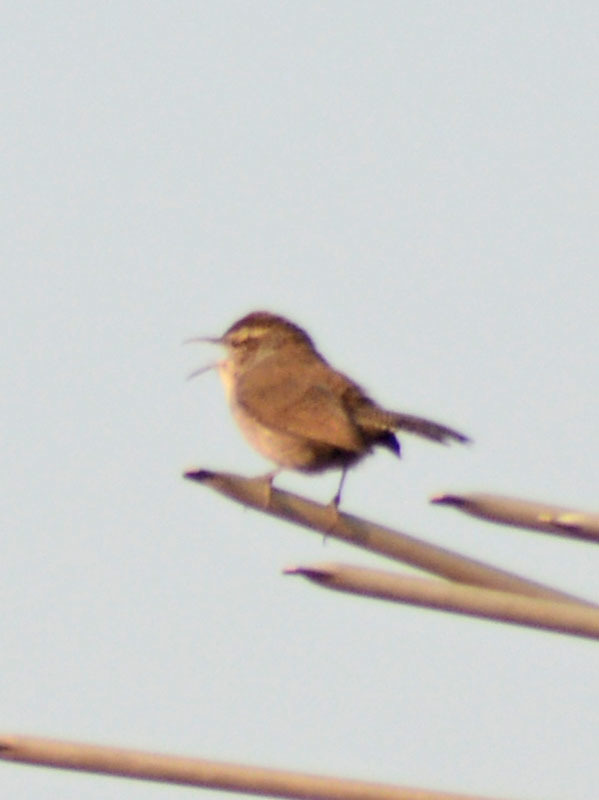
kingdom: Animalia
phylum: Chordata
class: Aves
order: Passeriformes
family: Troglodytidae
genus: Thryomanes
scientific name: Thryomanes bewickii
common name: Bewick's wren
